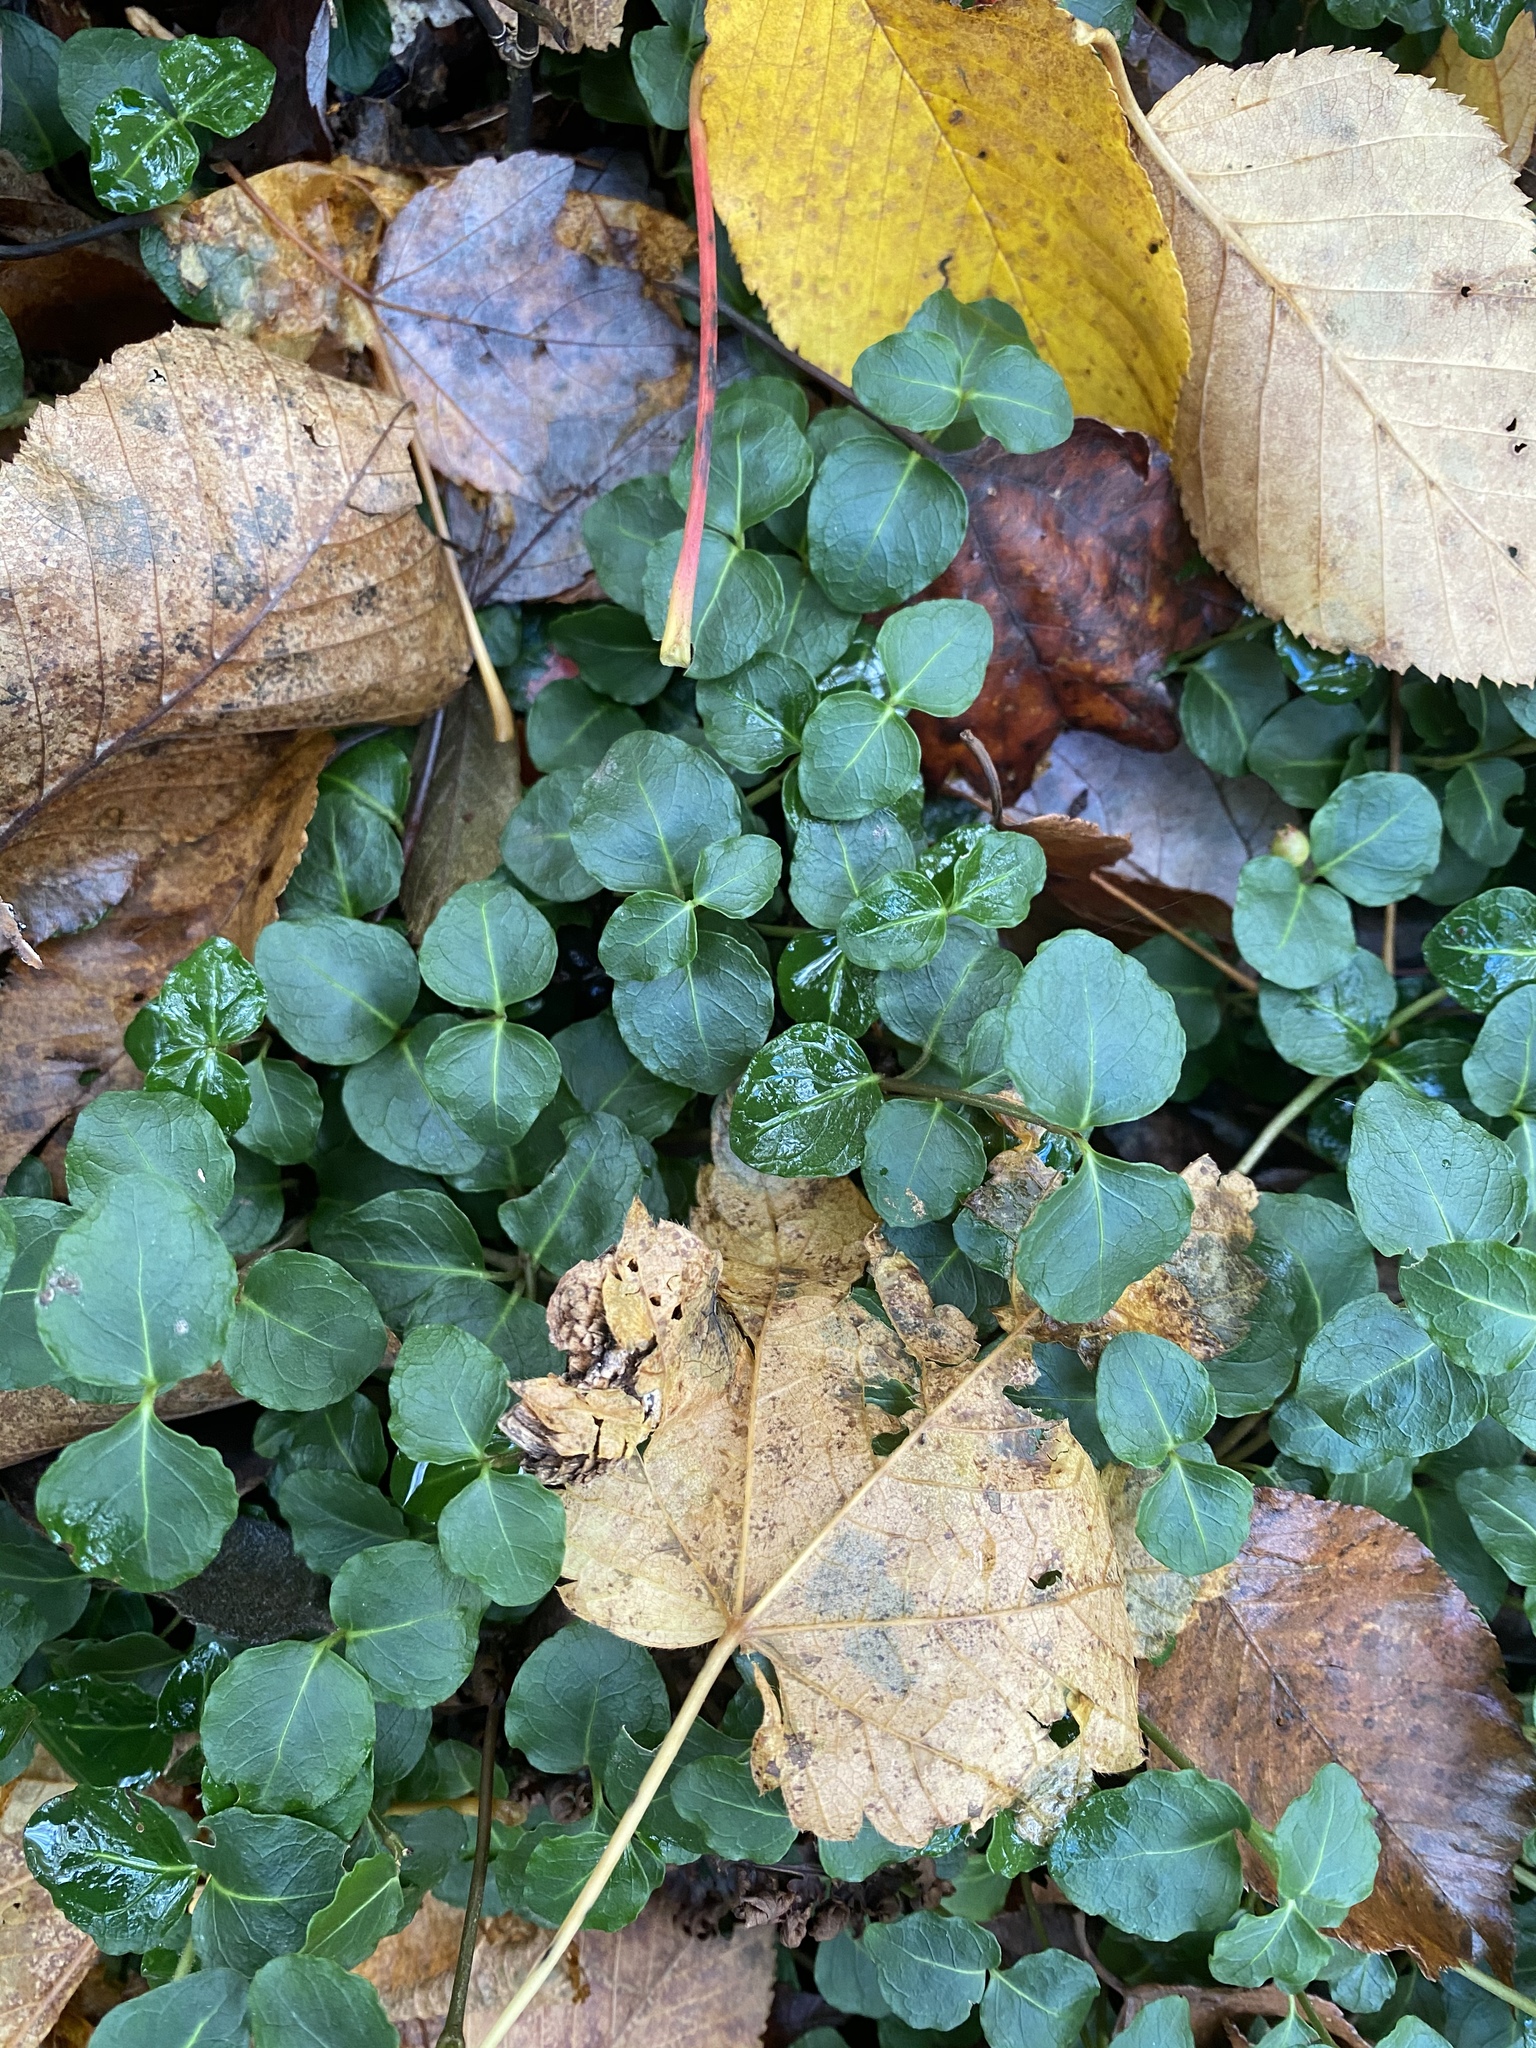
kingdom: Plantae
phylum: Tracheophyta
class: Magnoliopsida
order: Gentianales
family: Rubiaceae
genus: Mitchella
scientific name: Mitchella repens
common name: Partridge-berry
